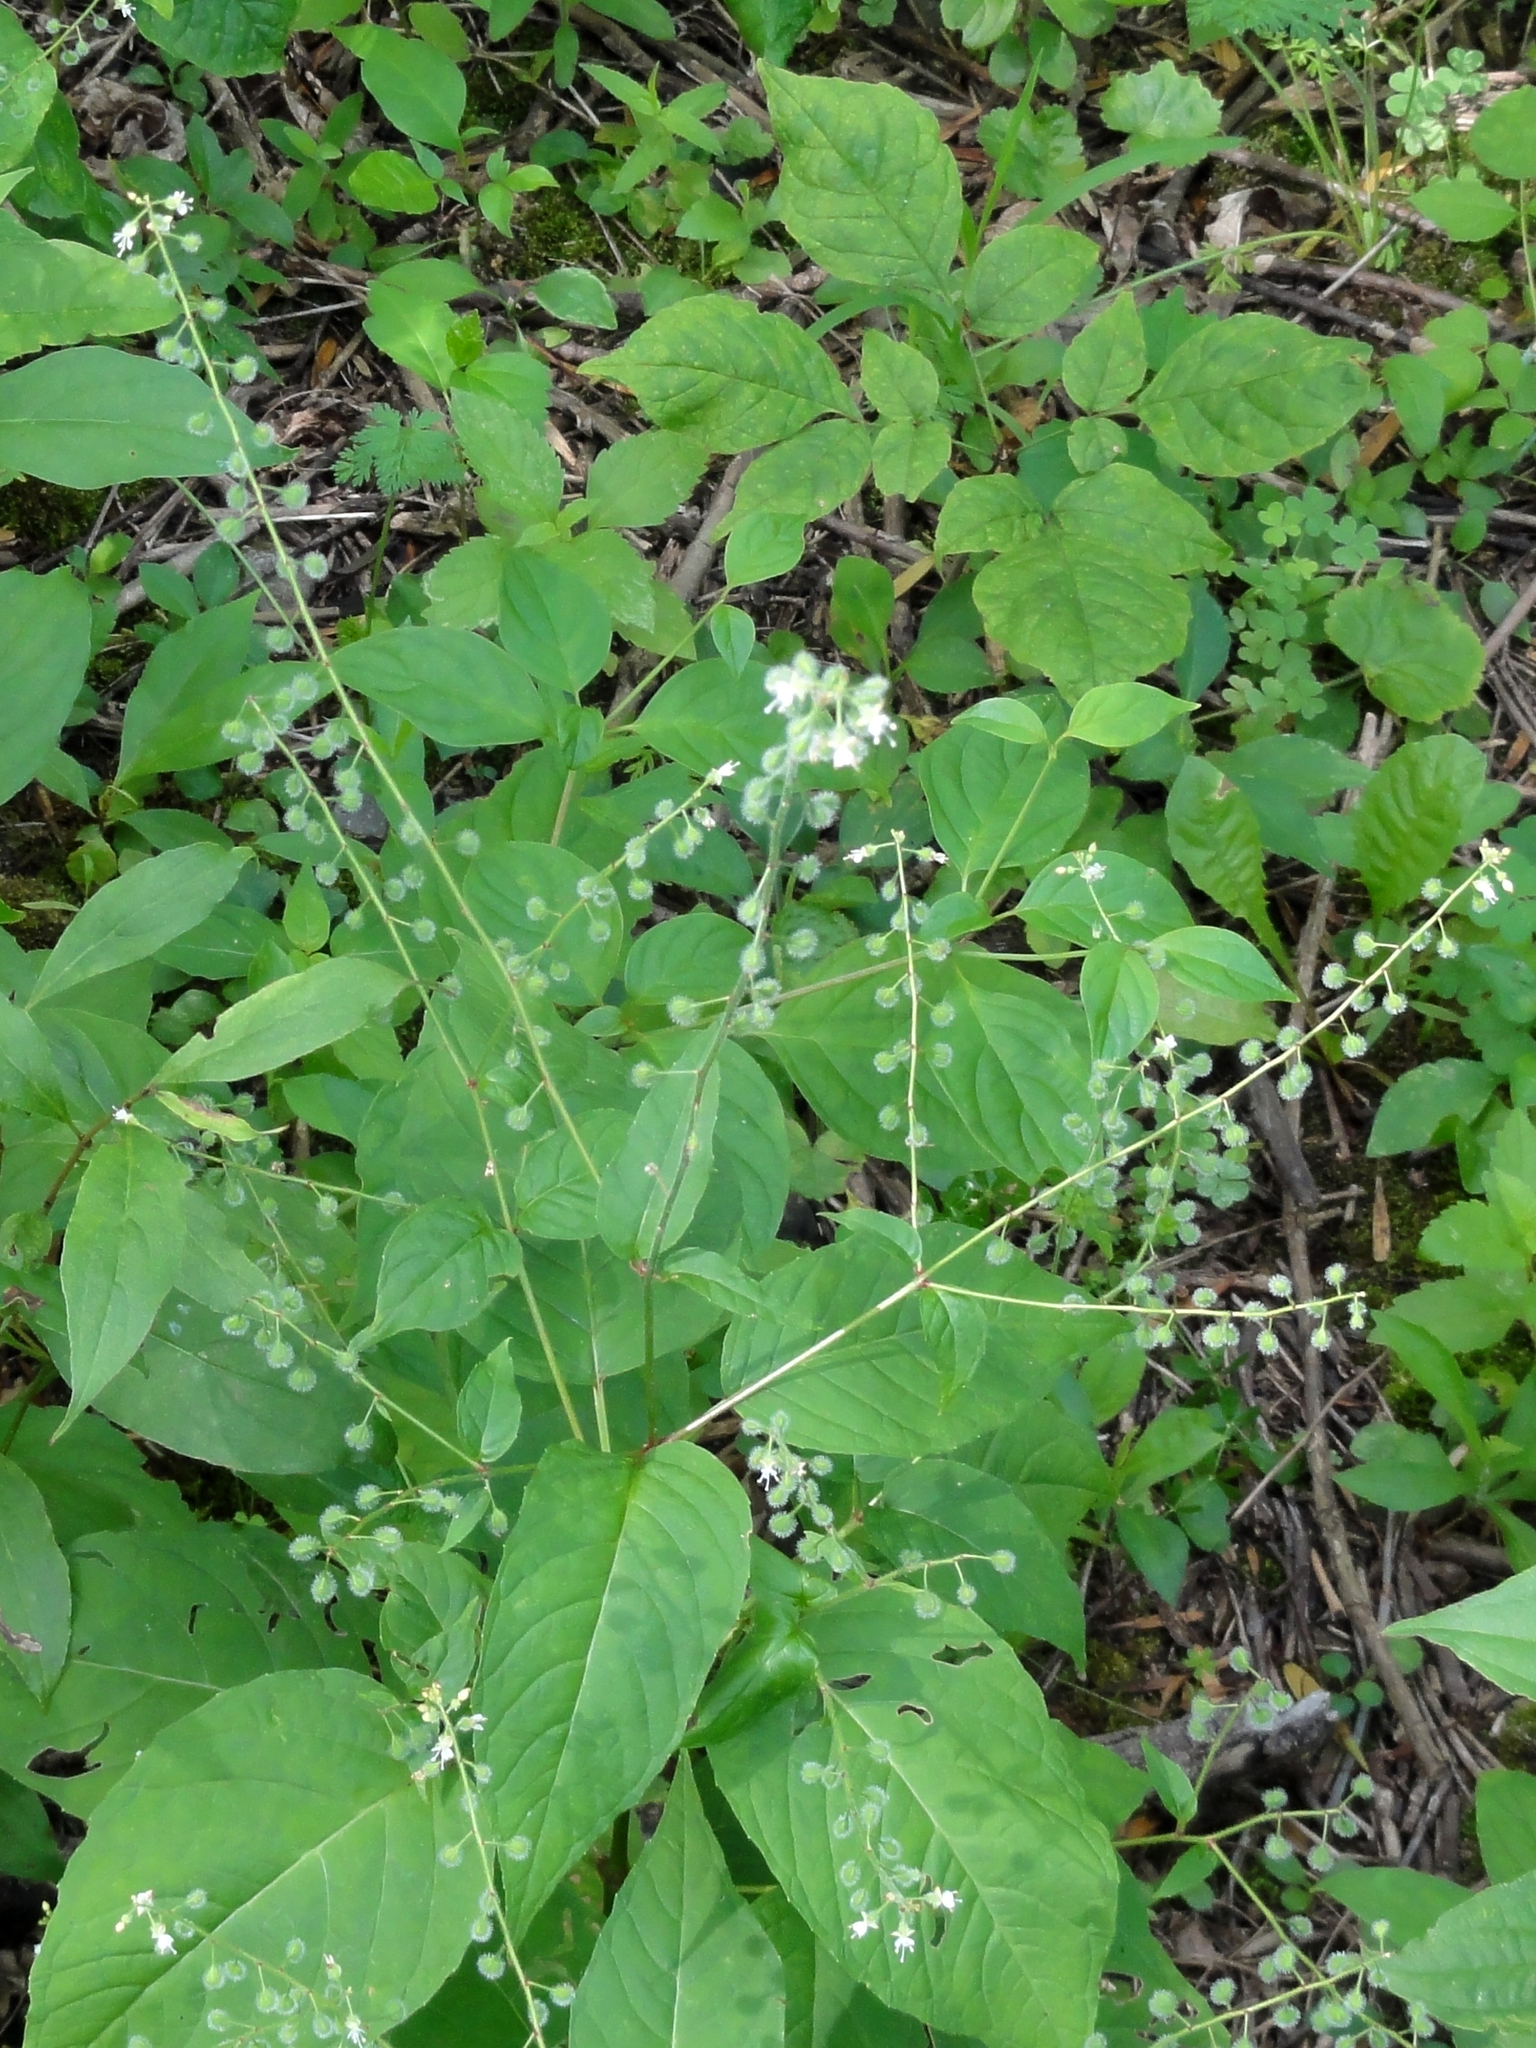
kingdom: Plantae
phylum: Tracheophyta
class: Magnoliopsida
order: Myrtales
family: Onagraceae
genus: Circaea
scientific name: Circaea canadensis
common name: Broad-leaved enchanter's nightshade
